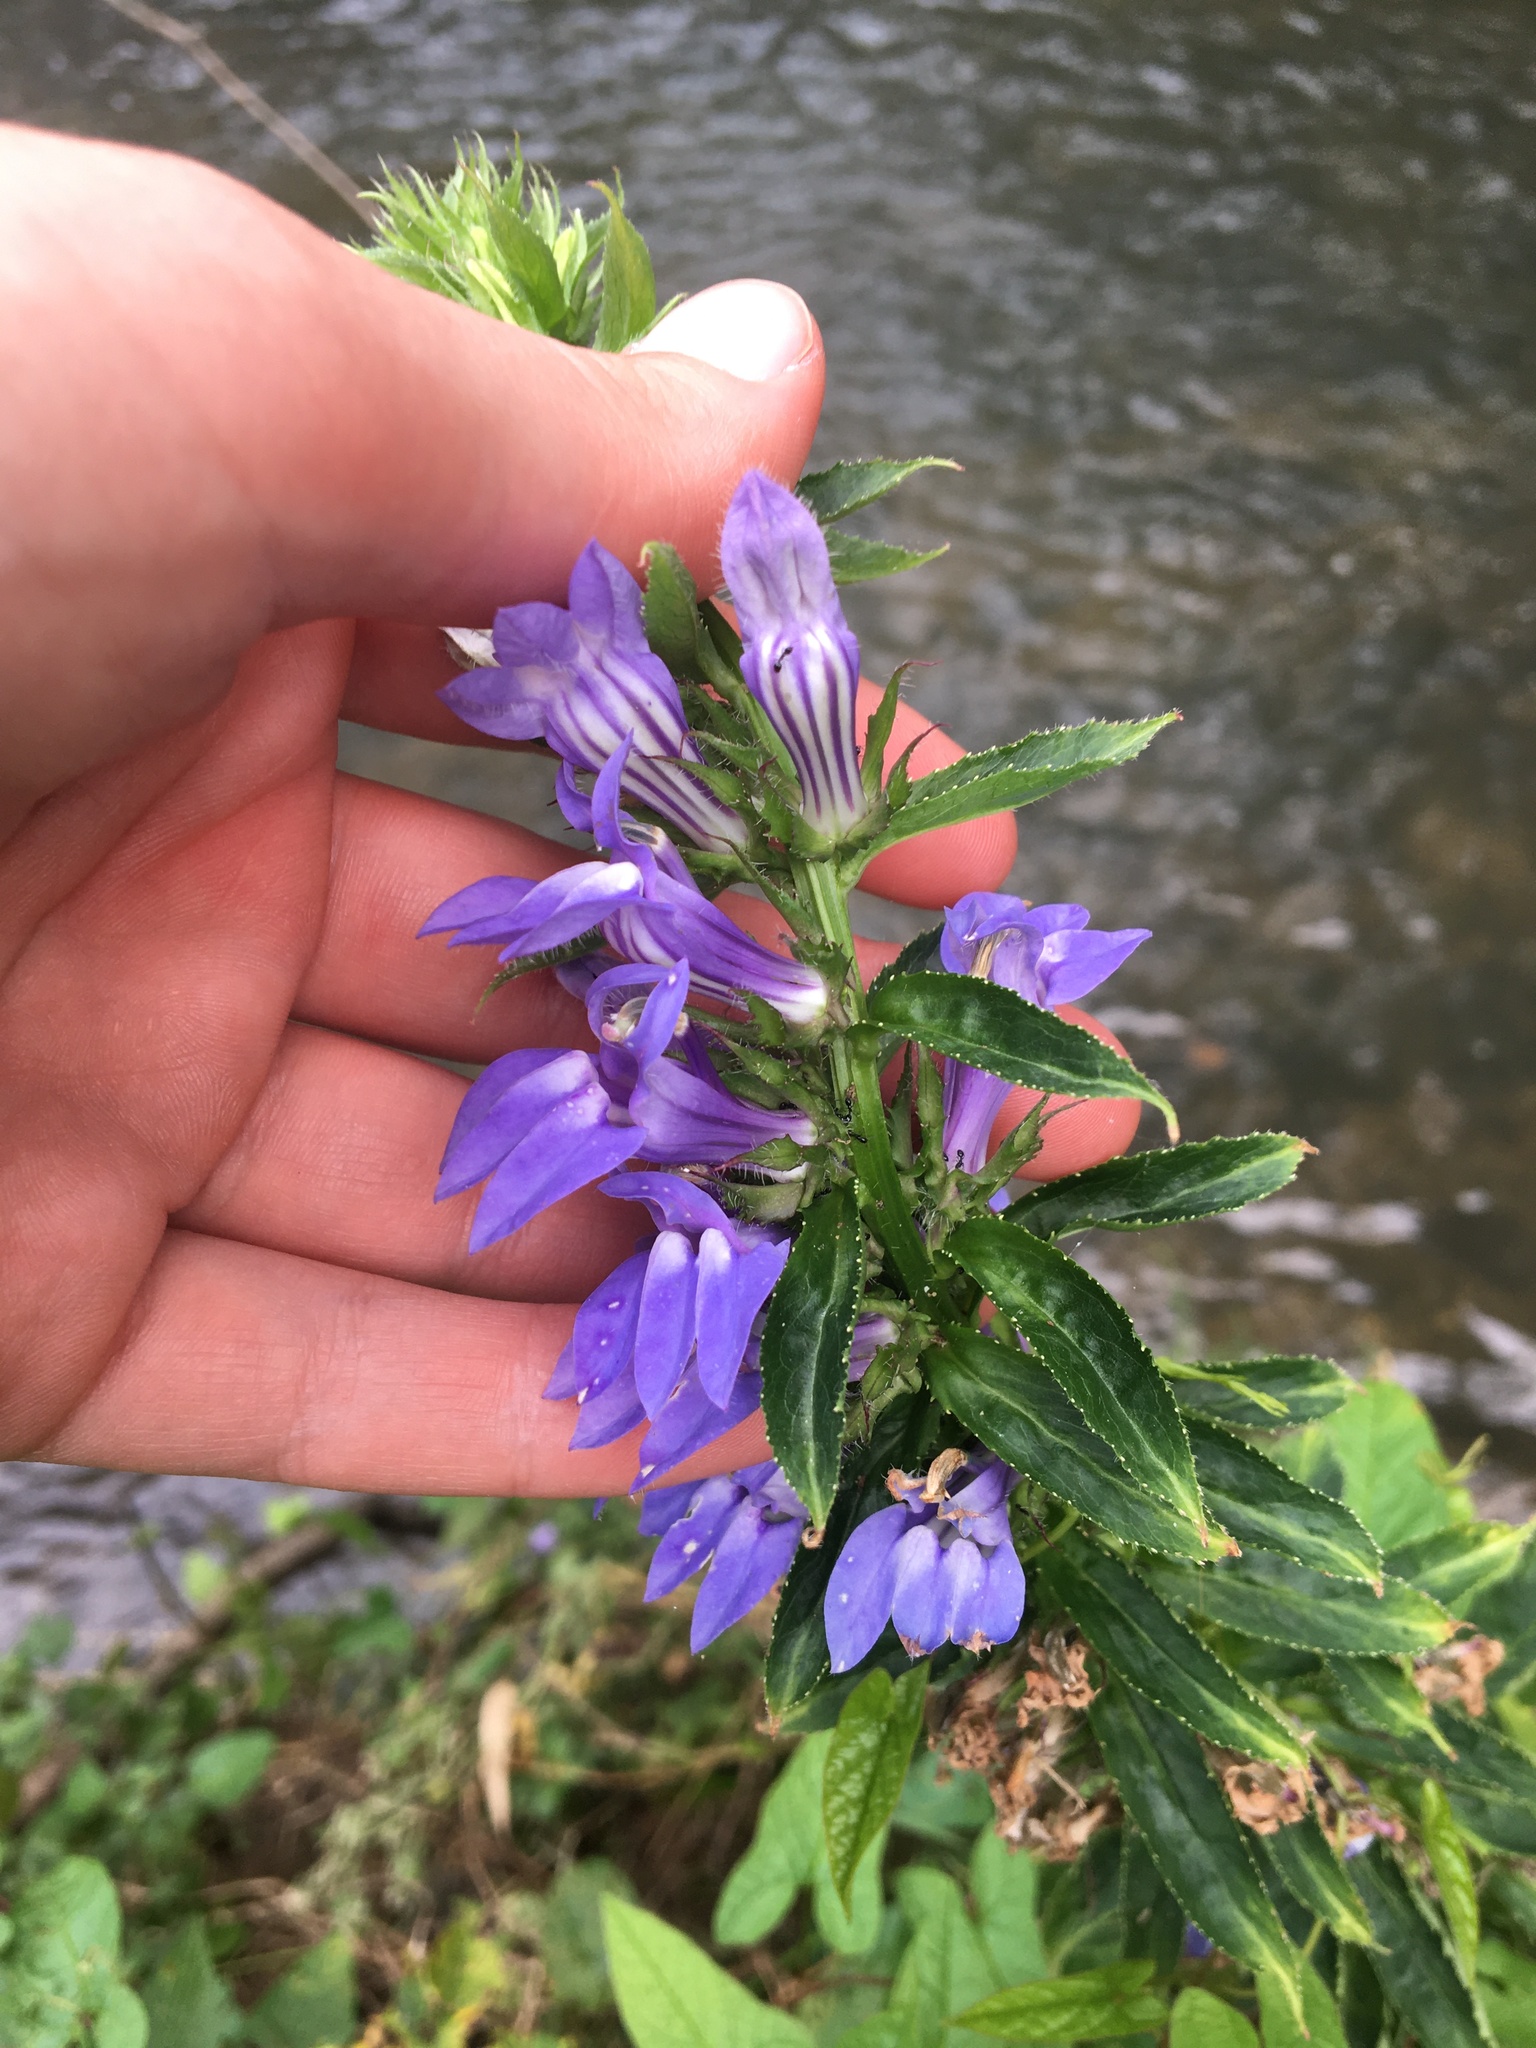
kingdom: Plantae
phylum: Tracheophyta
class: Magnoliopsida
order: Asterales
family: Campanulaceae
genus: Lobelia
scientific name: Lobelia siphilitica
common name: Great lobelia
